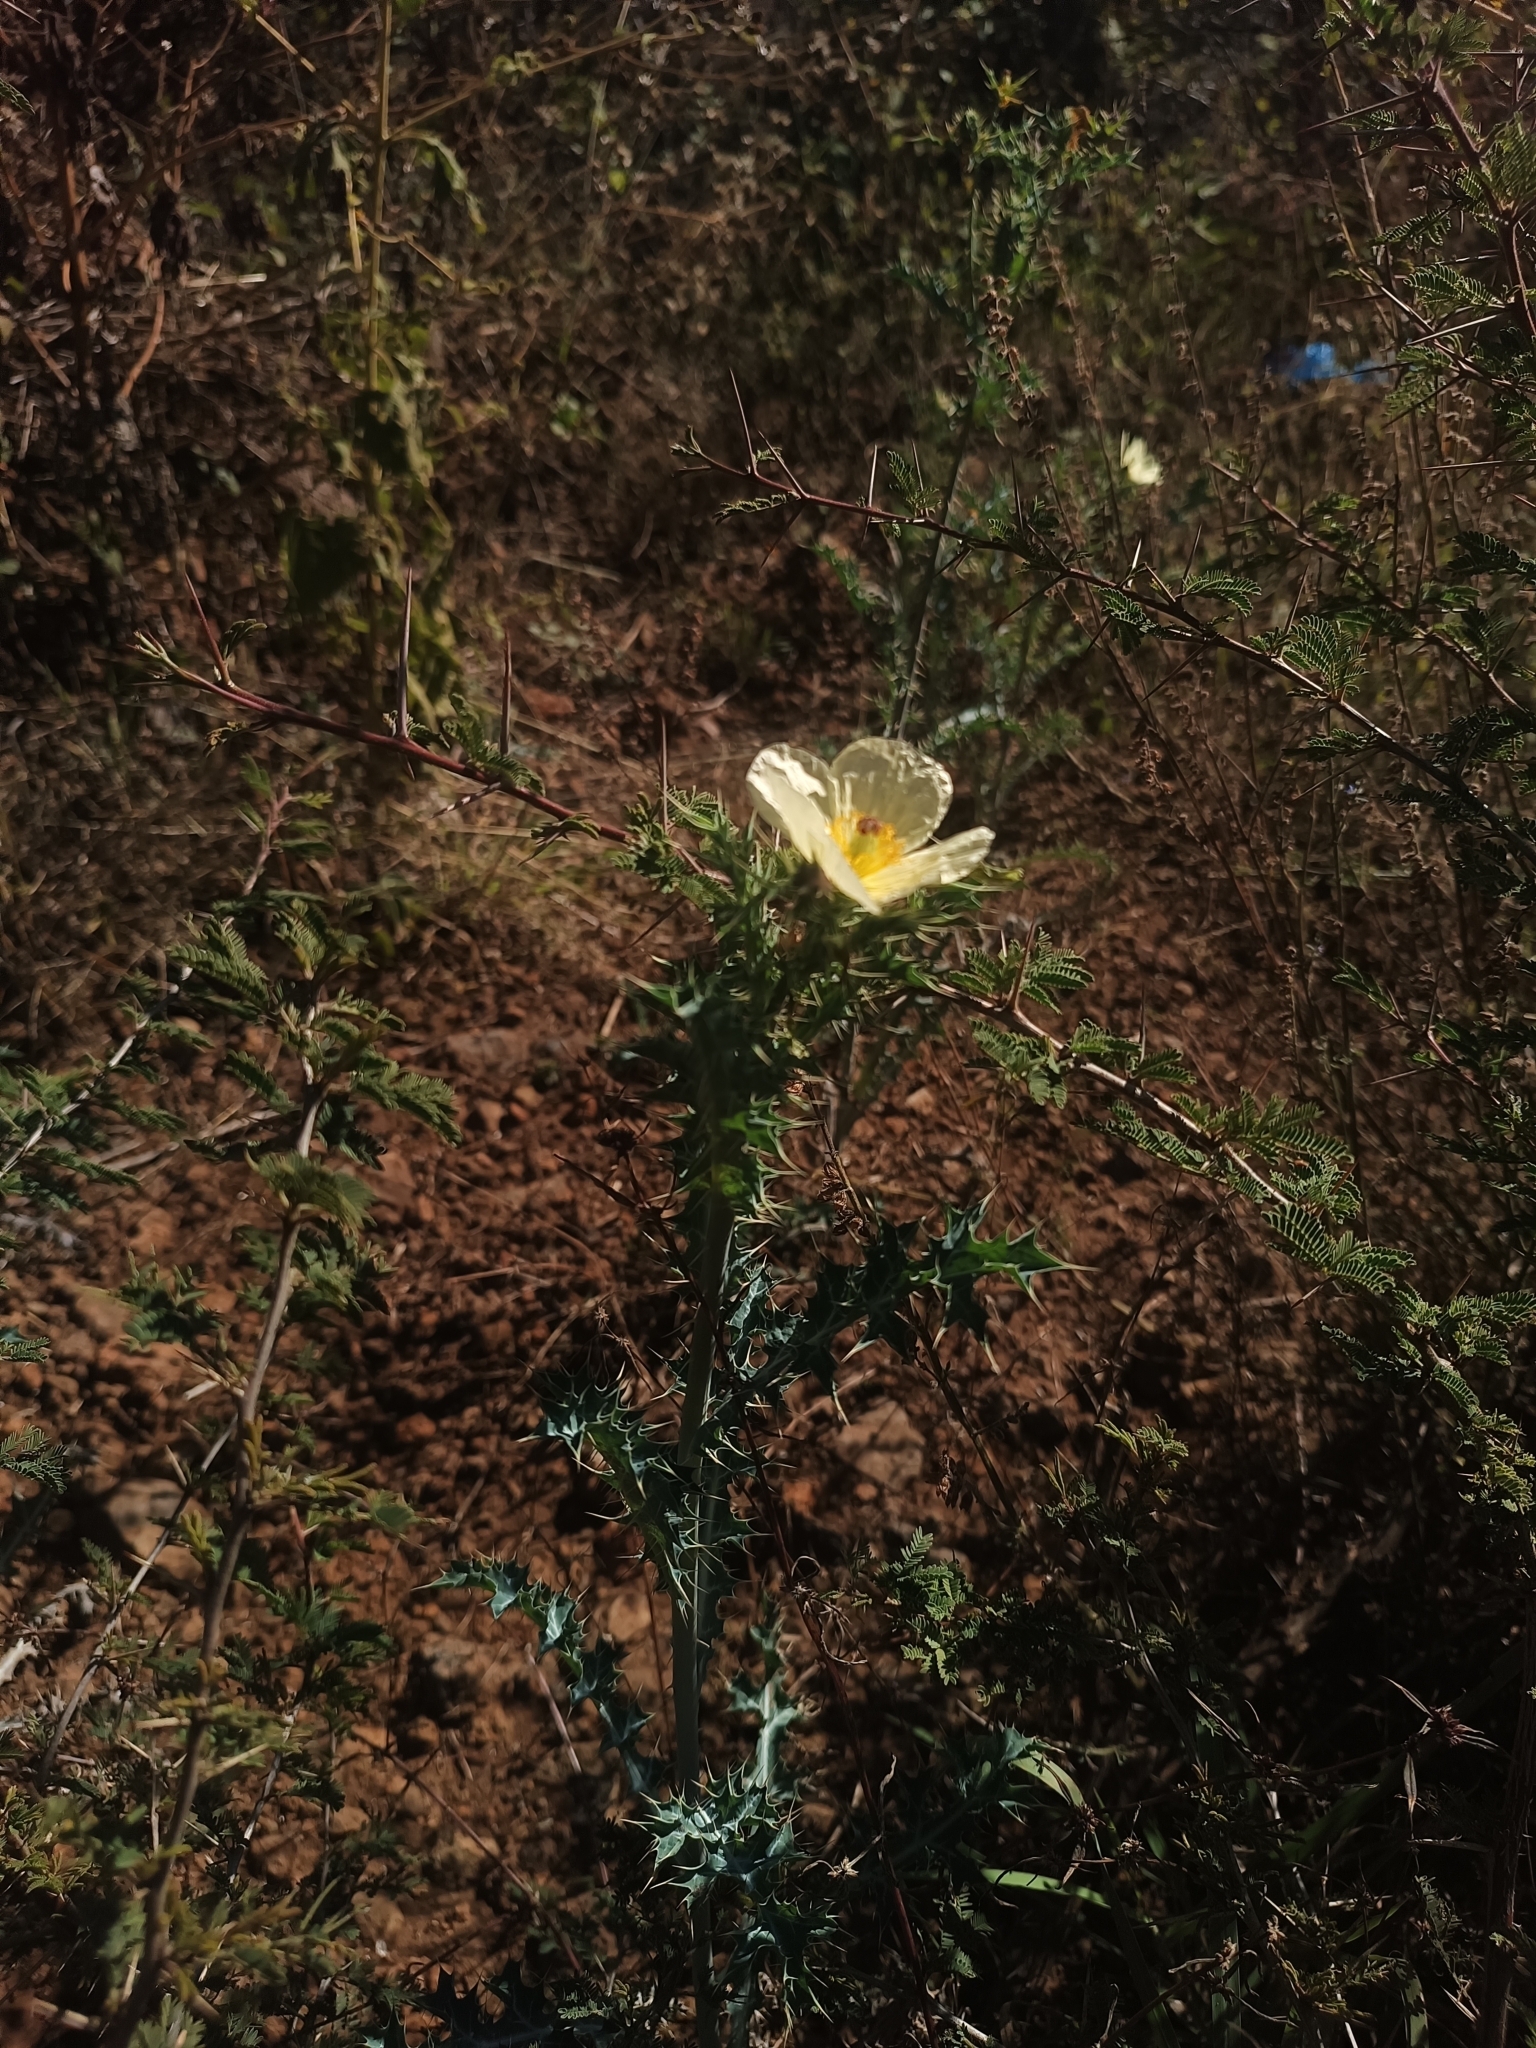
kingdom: Plantae
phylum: Tracheophyta
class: Magnoliopsida
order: Ranunculales
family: Papaveraceae
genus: Argemone
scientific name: Argemone ochroleuca
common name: White-flower mexican-poppy
